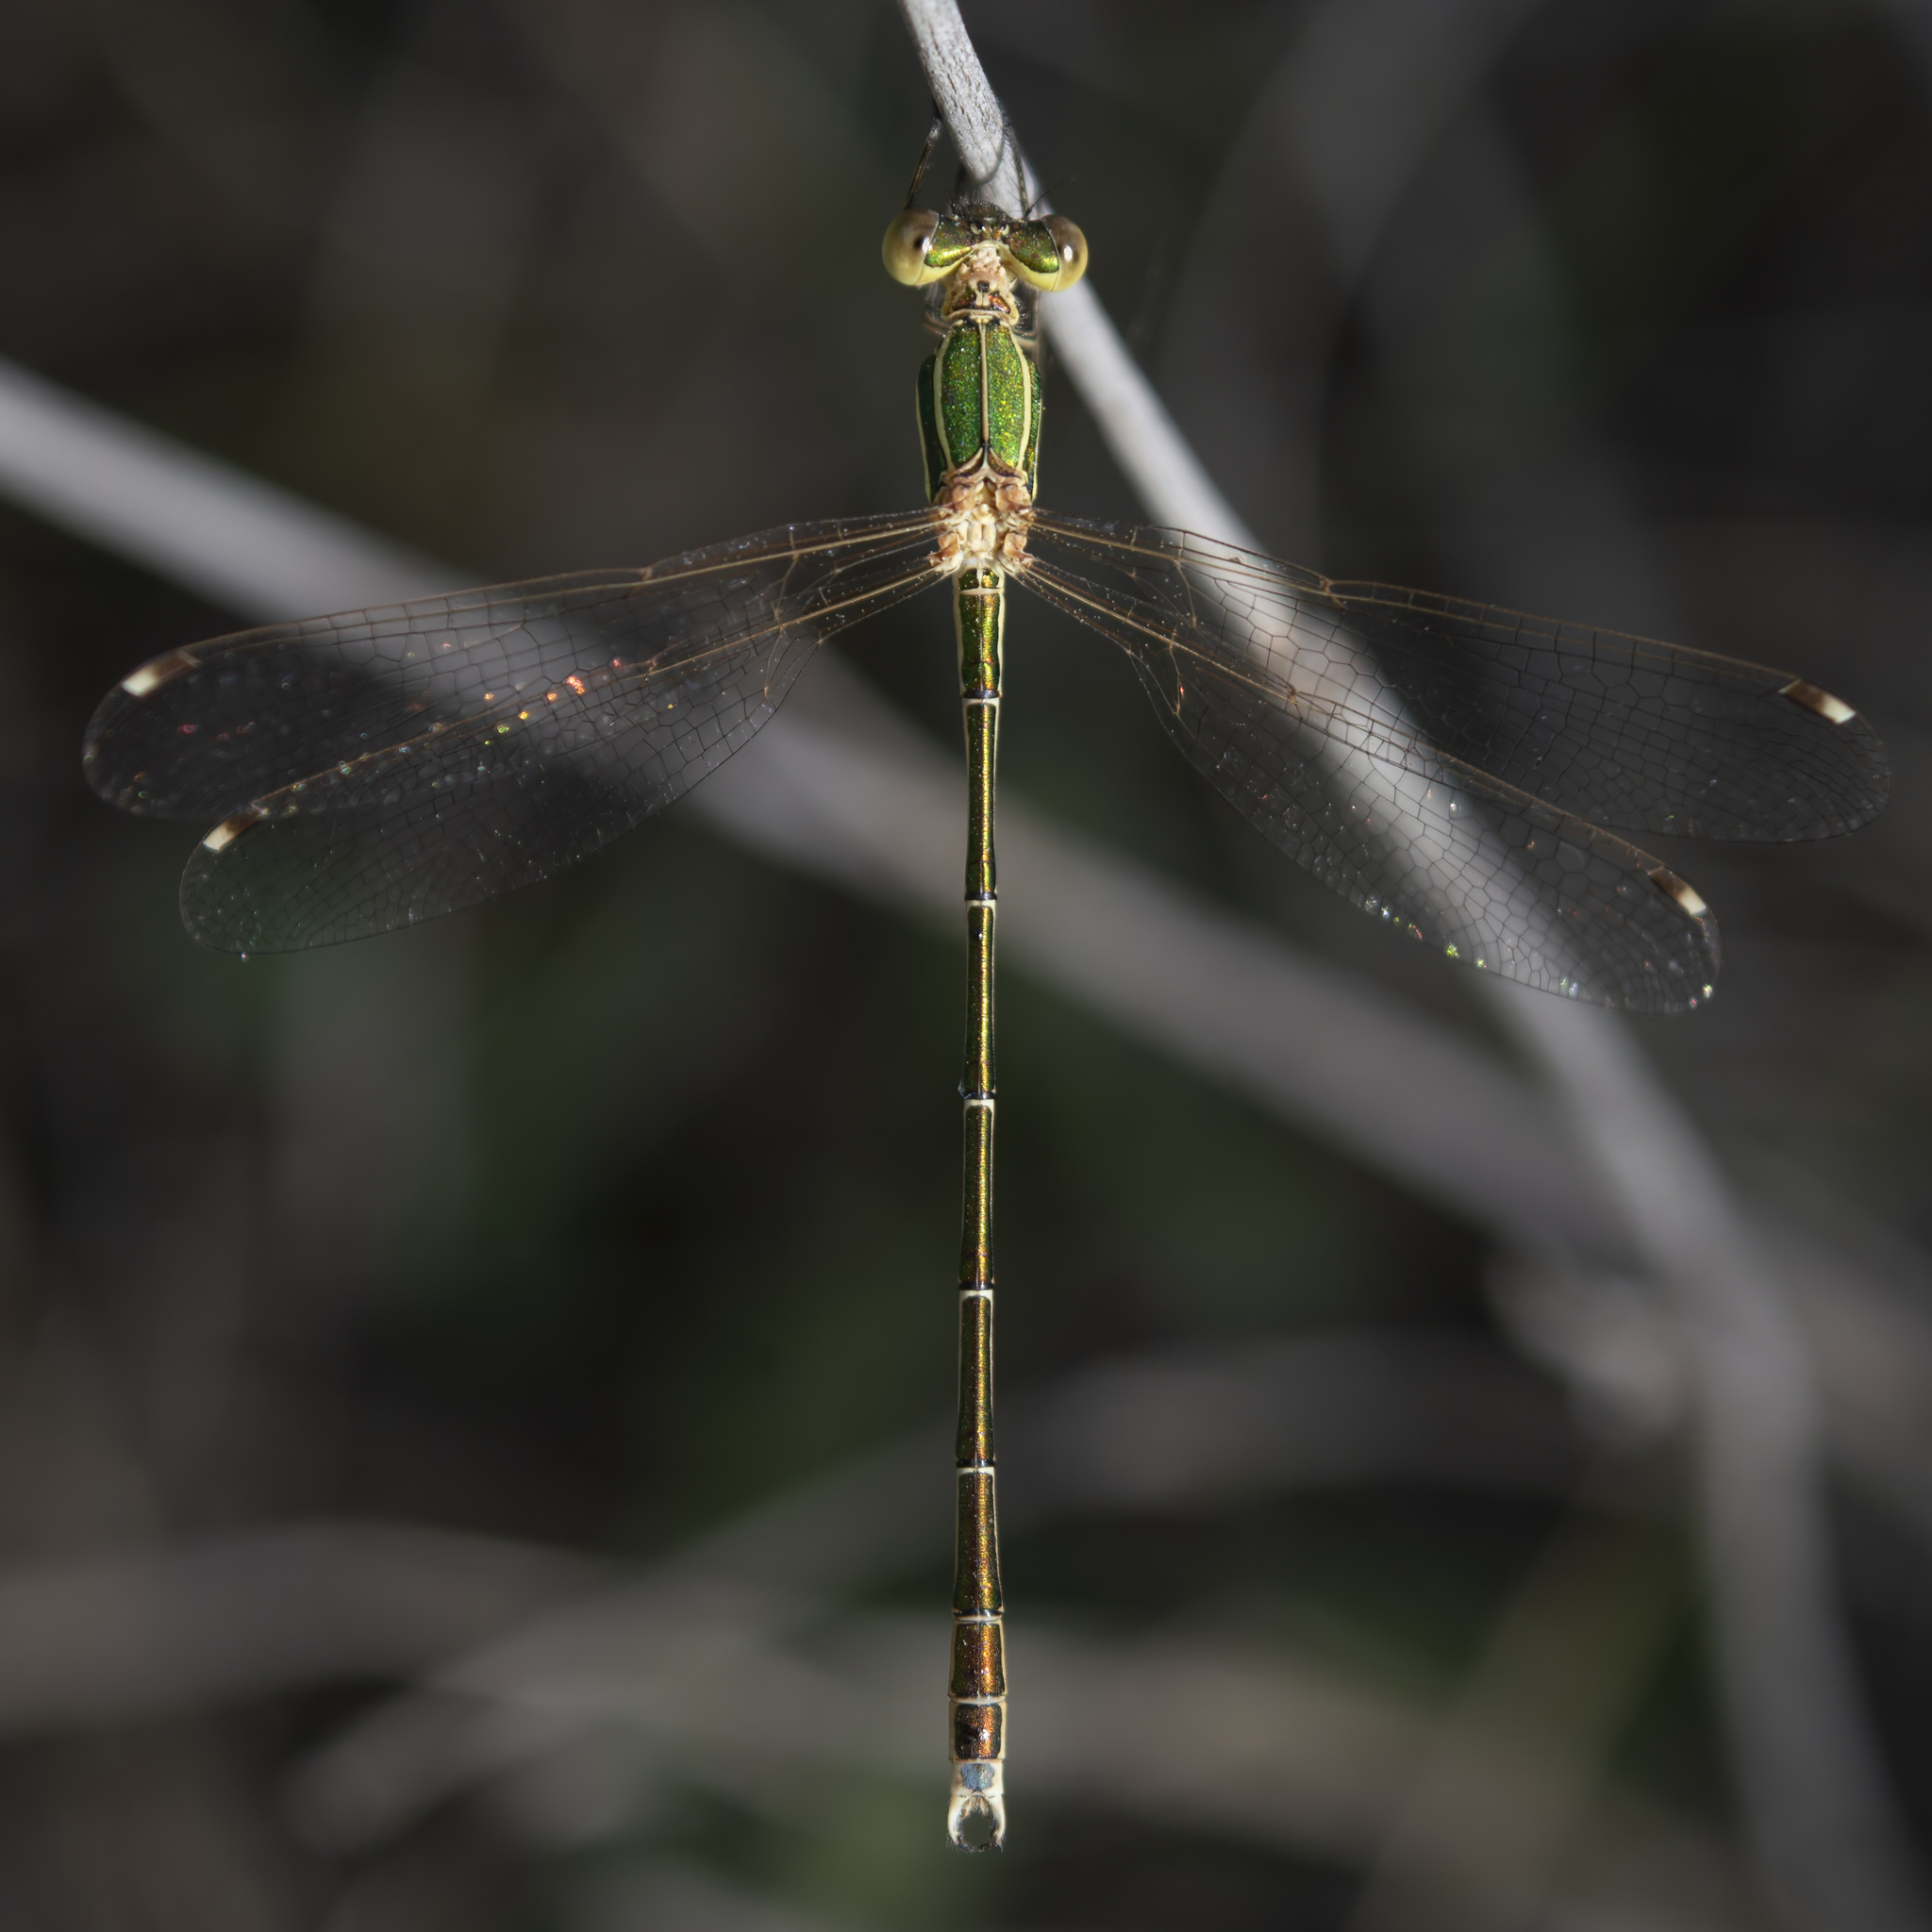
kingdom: Animalia
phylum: Arthropoda
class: Insecta
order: Odonata
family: Lestidae
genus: Lestes
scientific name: Lestes barbarus
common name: Migrant spreadwing
